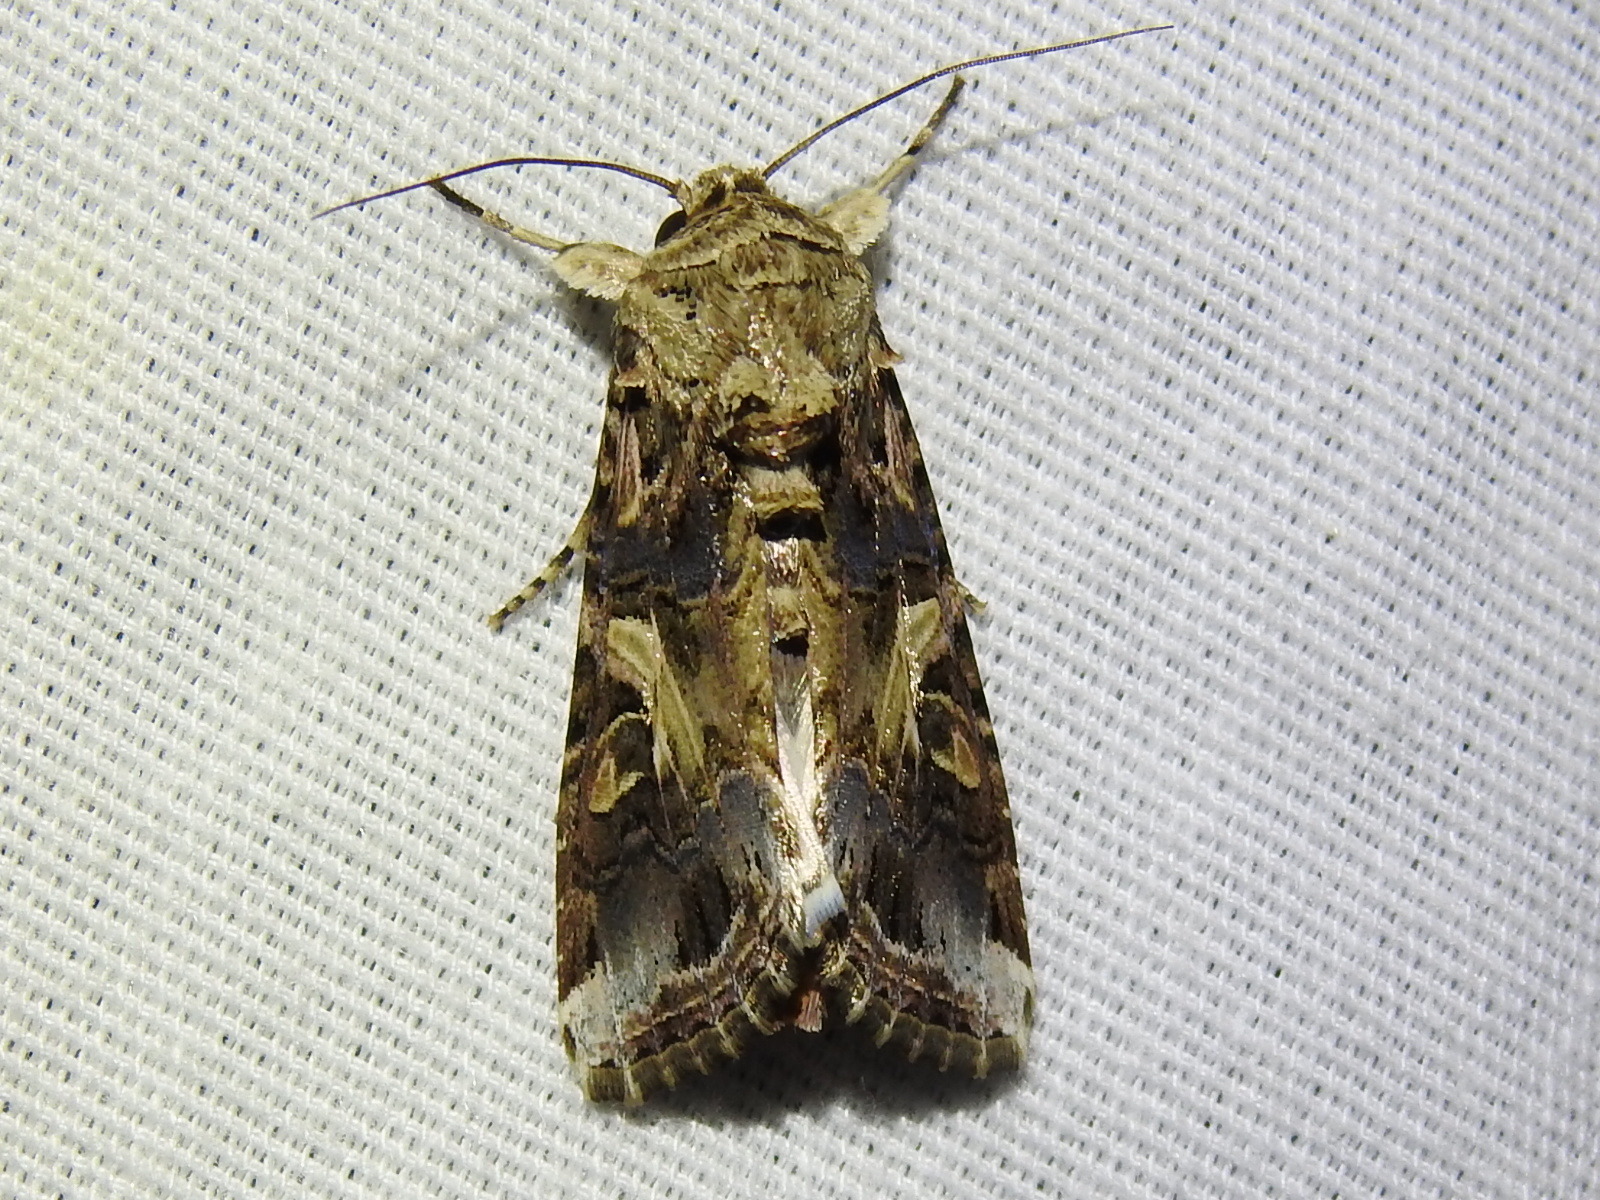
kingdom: Animalia
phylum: Arthropoda
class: Insecta
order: Lepidoptera
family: Noctuidae
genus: Spodoptera
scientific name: Spodoptera ornithogalli
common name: Yellow-striped armyworm
